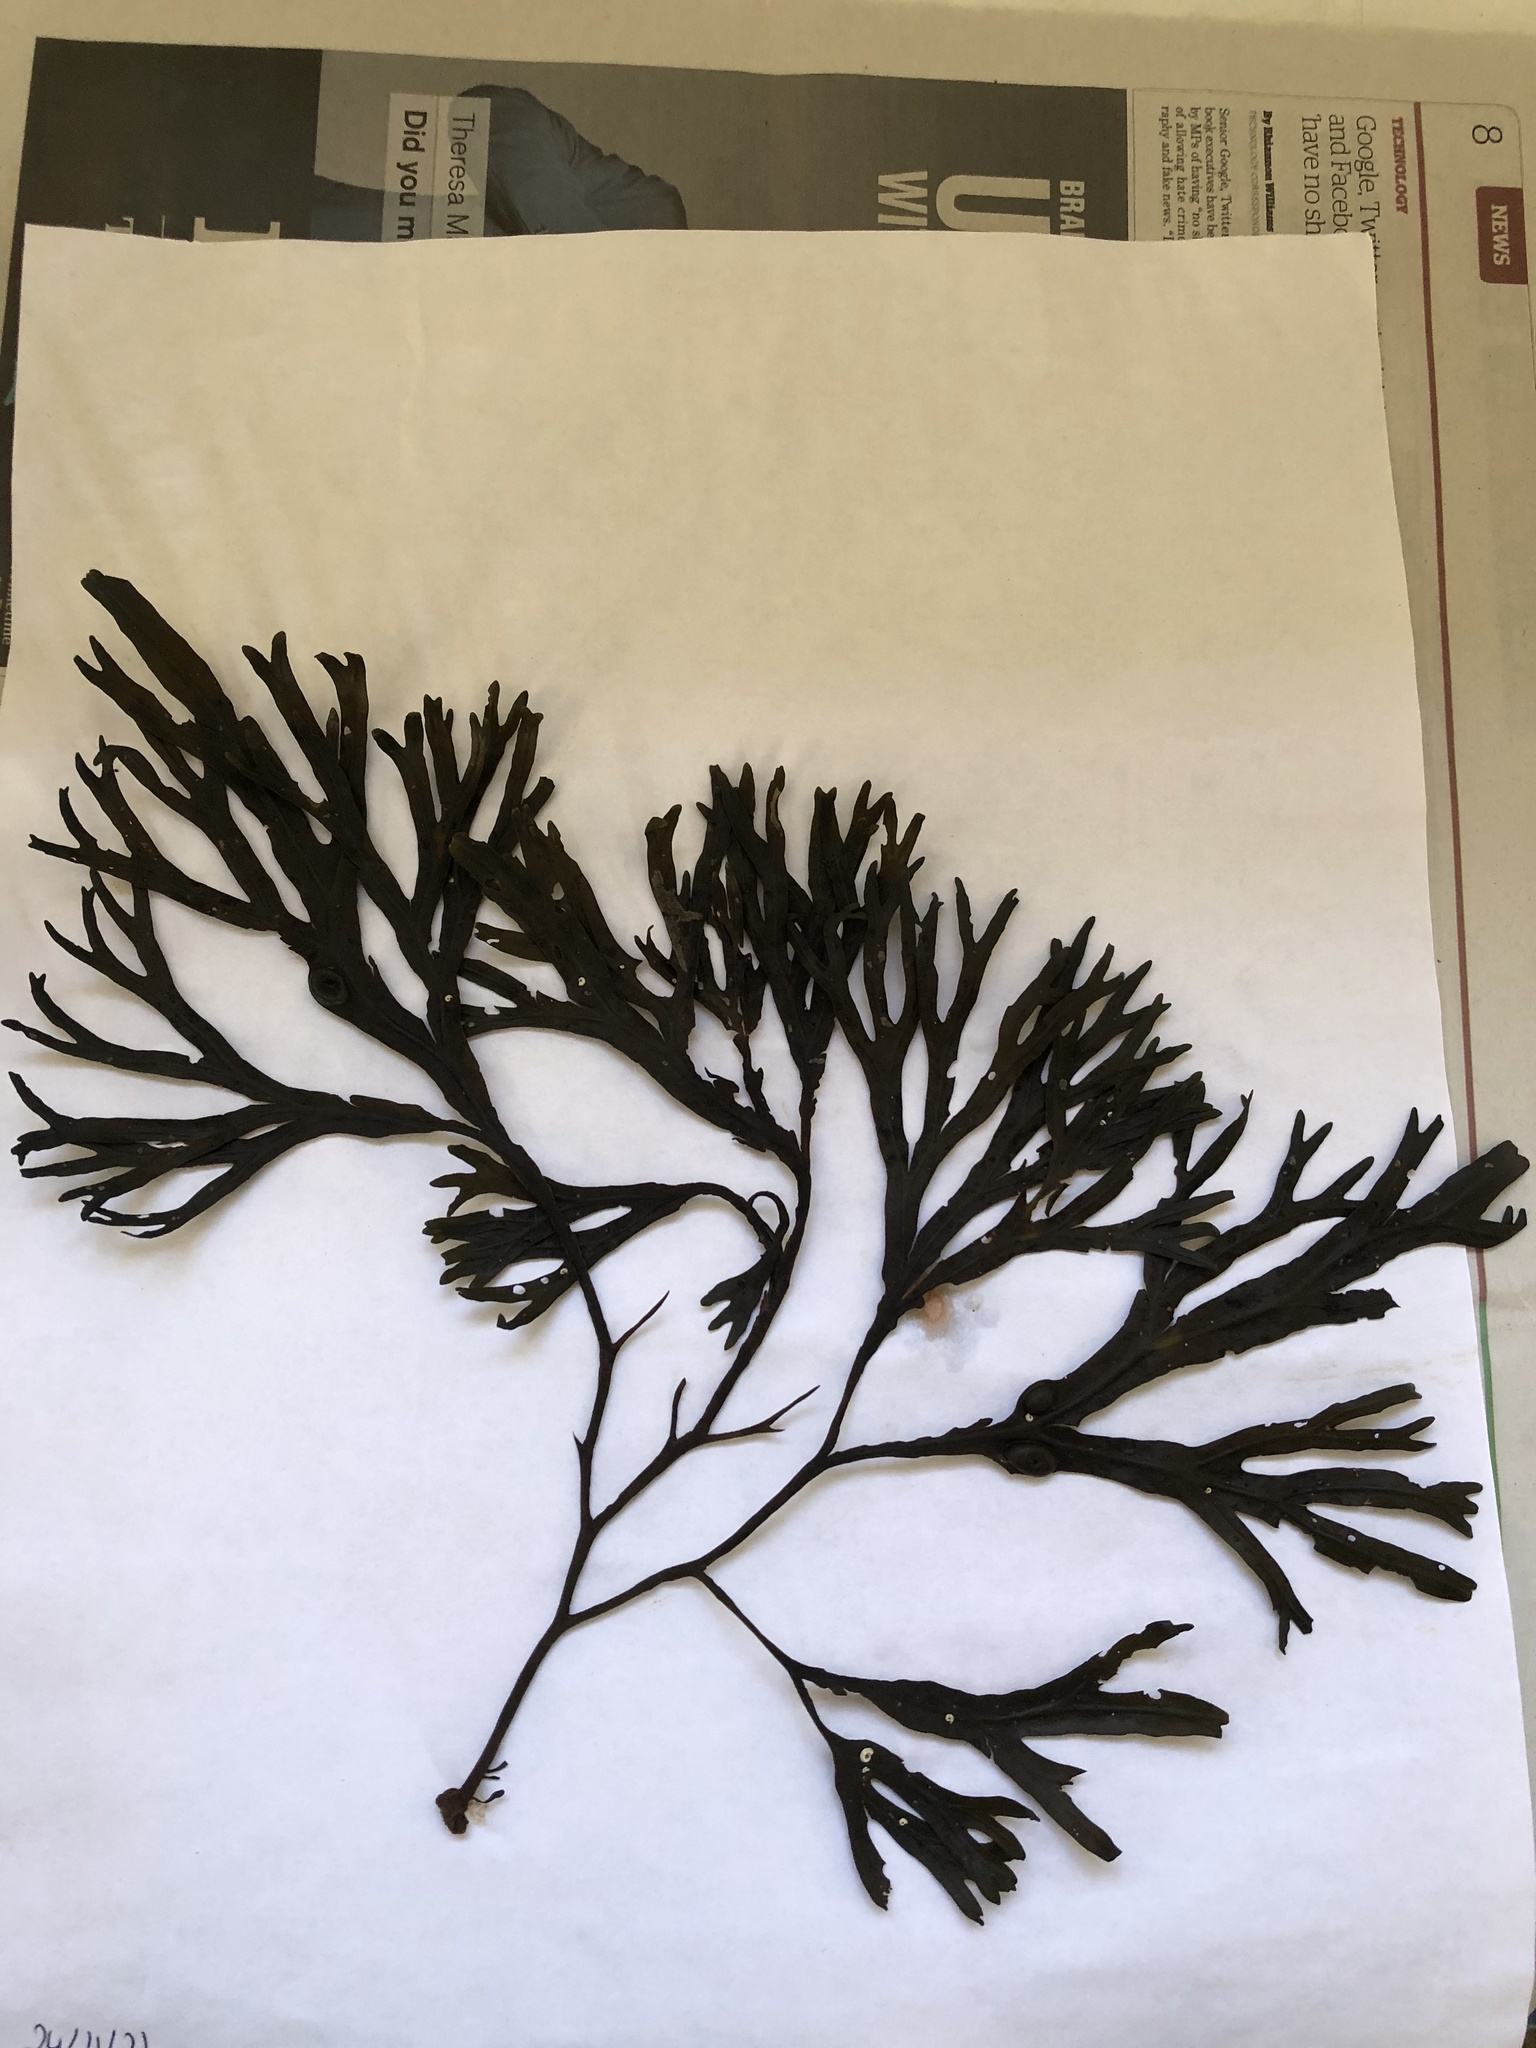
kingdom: Chromista
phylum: Ochrophyta
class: Phaeophyceae
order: Fucales
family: Fucaceae
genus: Fucus
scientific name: Fucus vesiculosus
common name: Bladder wrack
